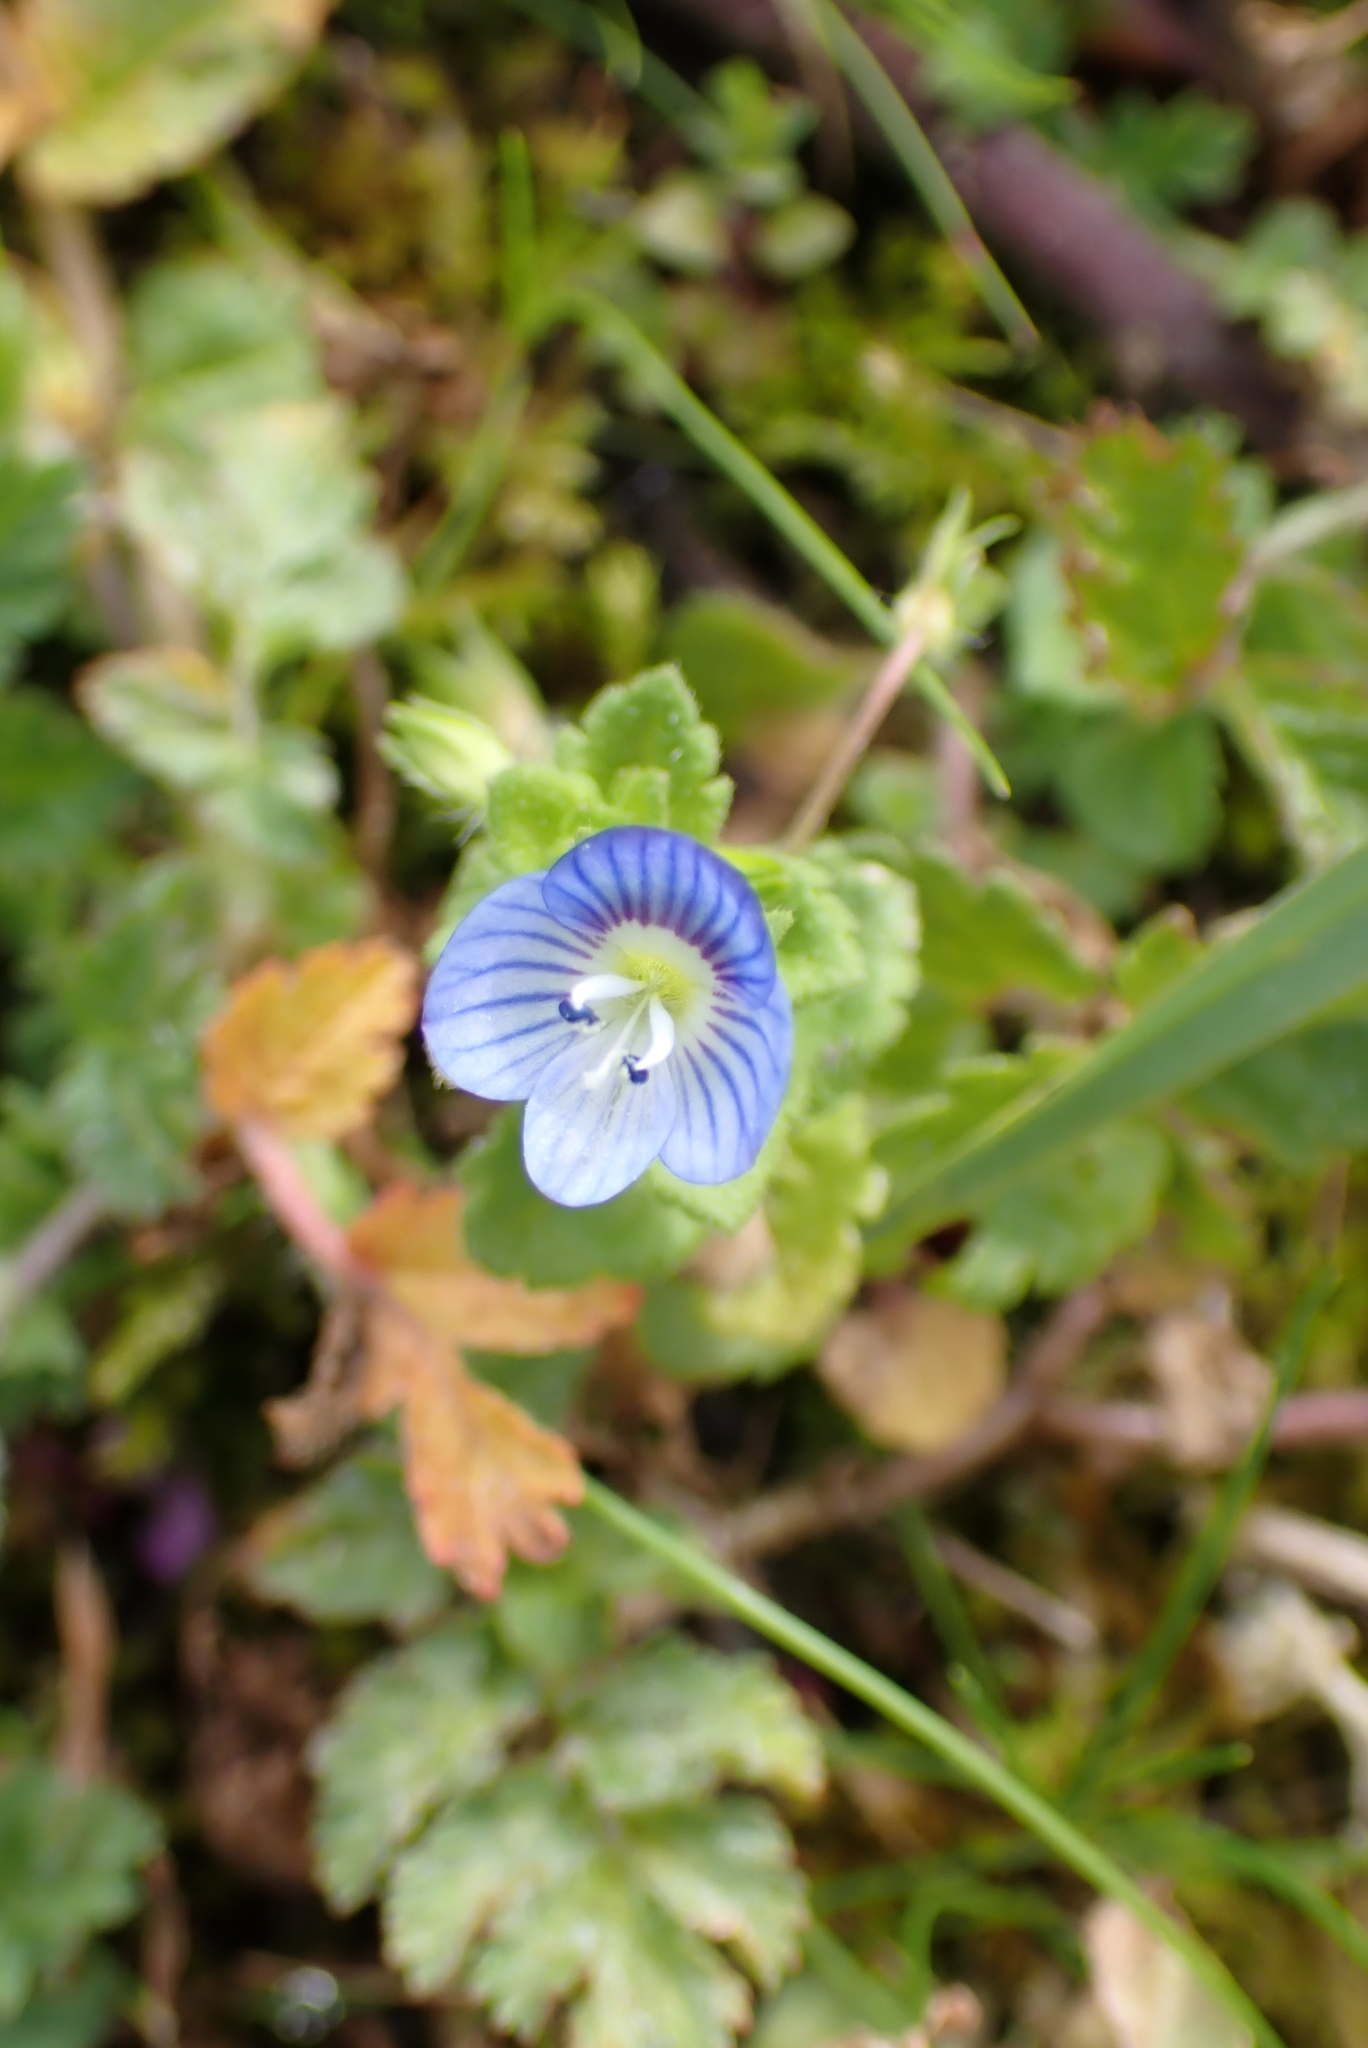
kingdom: Plantae
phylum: Tracheophyta
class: Magnoliopsida
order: Lamiales
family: Plantaginaceae
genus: Veronica
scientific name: Veronica persica
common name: Common field-speedwell
